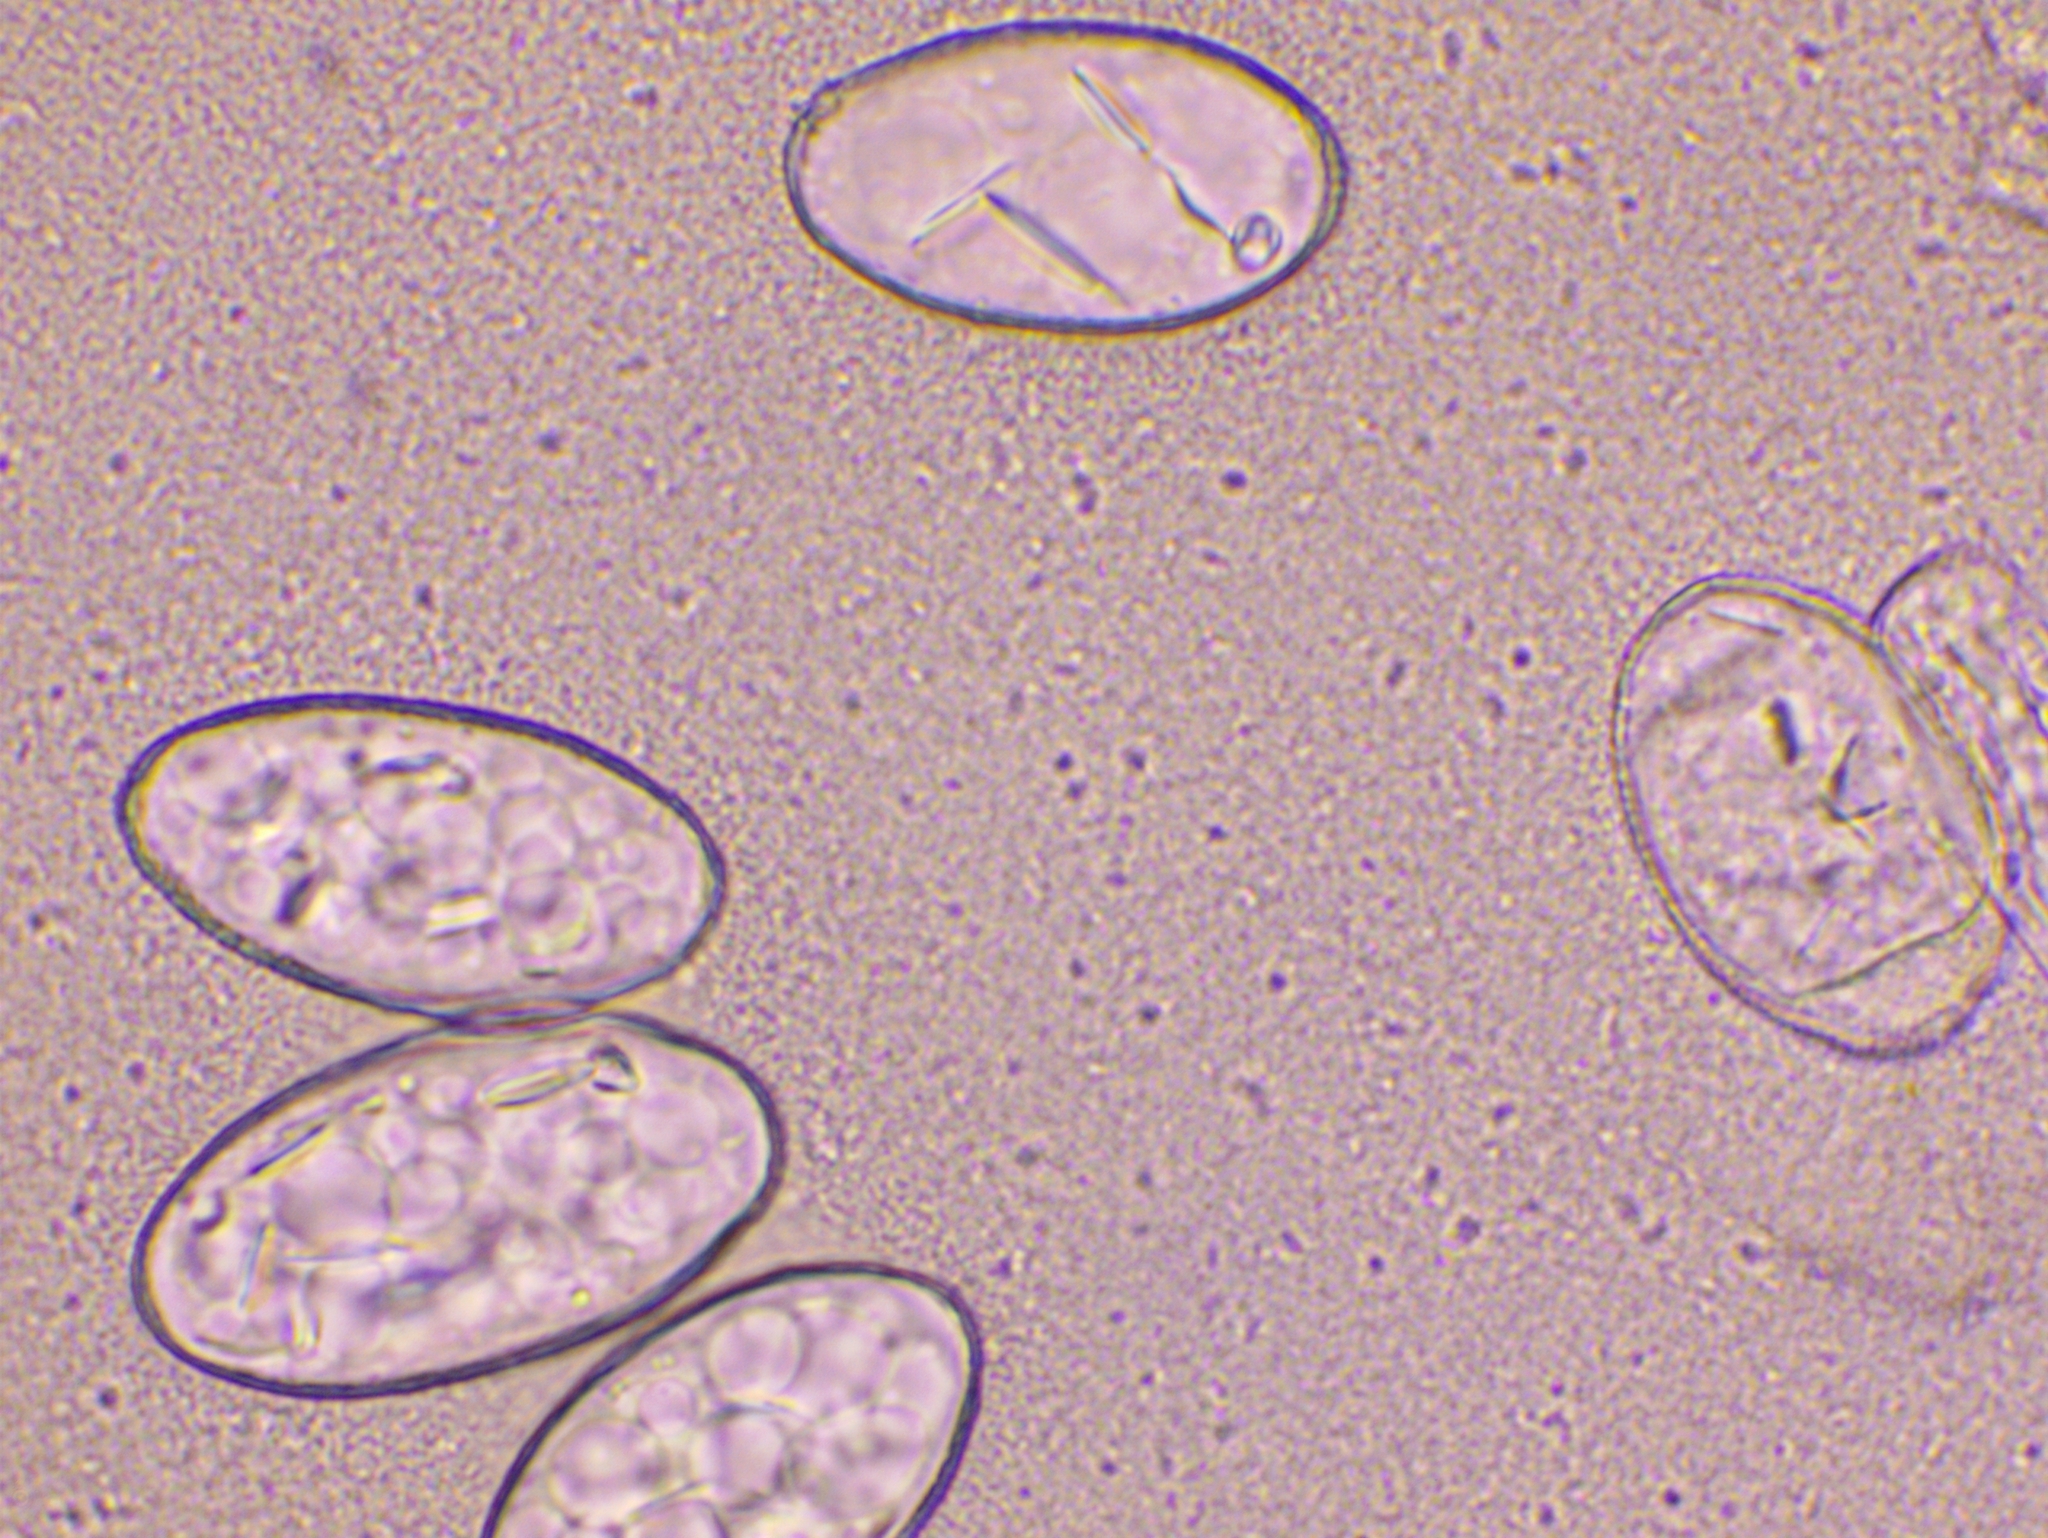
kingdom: Fungi
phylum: Ascomycota
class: Leotiomycetes
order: Helotiales
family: Erysiphaceae
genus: Podosphaera
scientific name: Podosphaera aphanis
